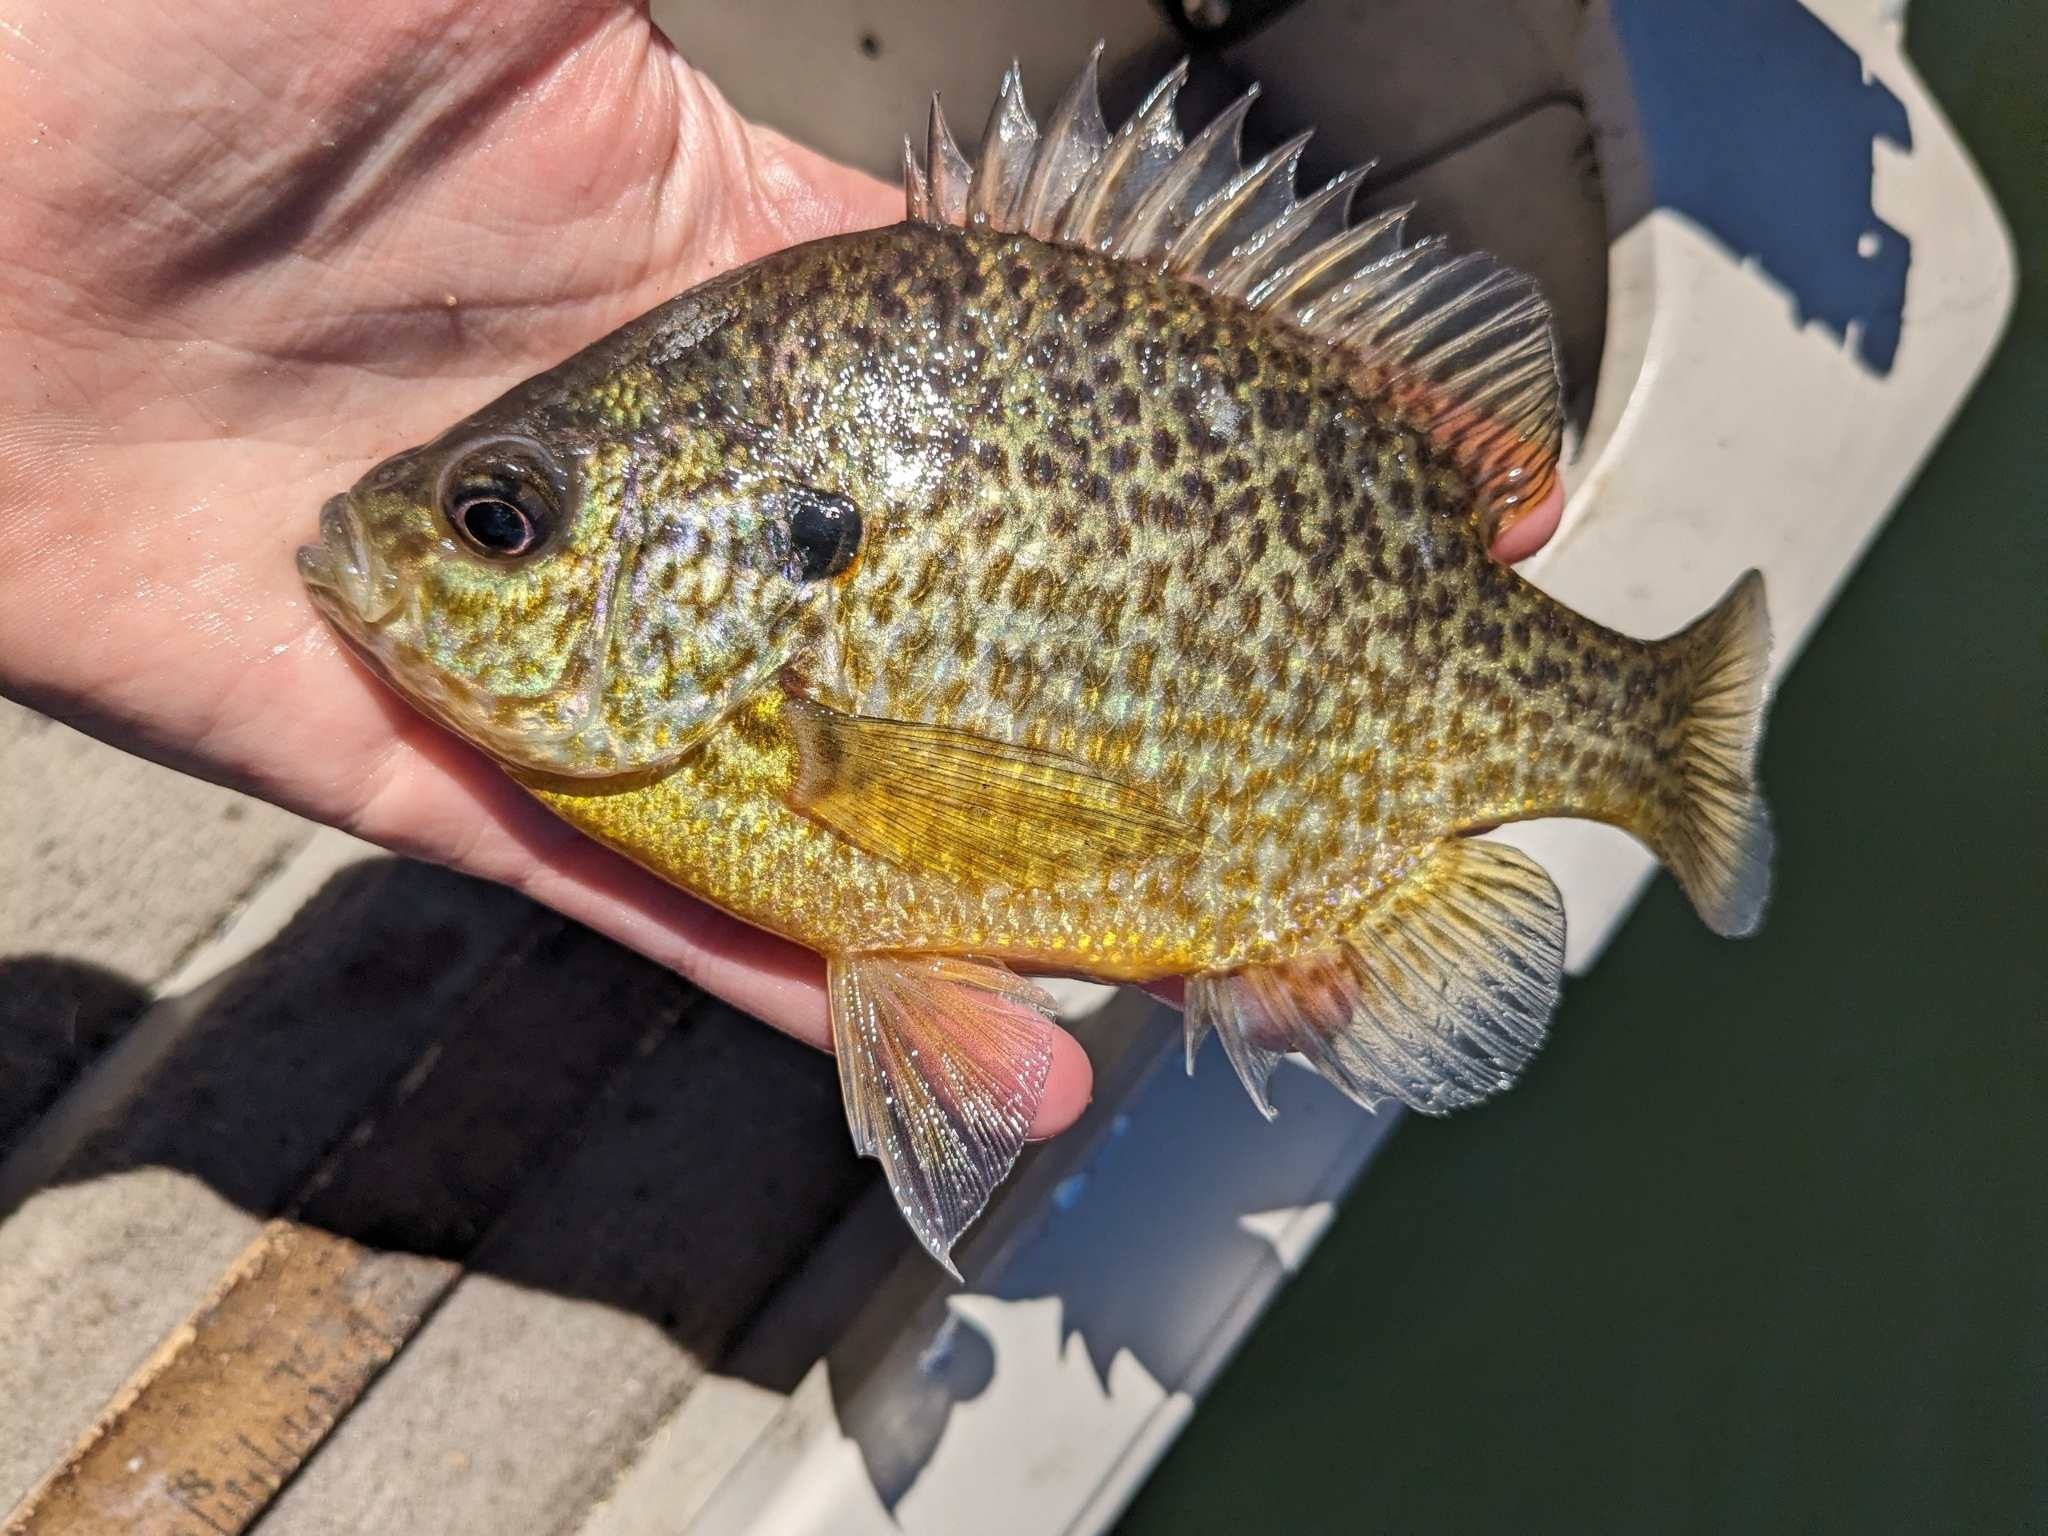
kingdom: Animalia
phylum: Chordata
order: Perciformes
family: Centrarchidae
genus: Lepomis
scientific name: Lepomis
